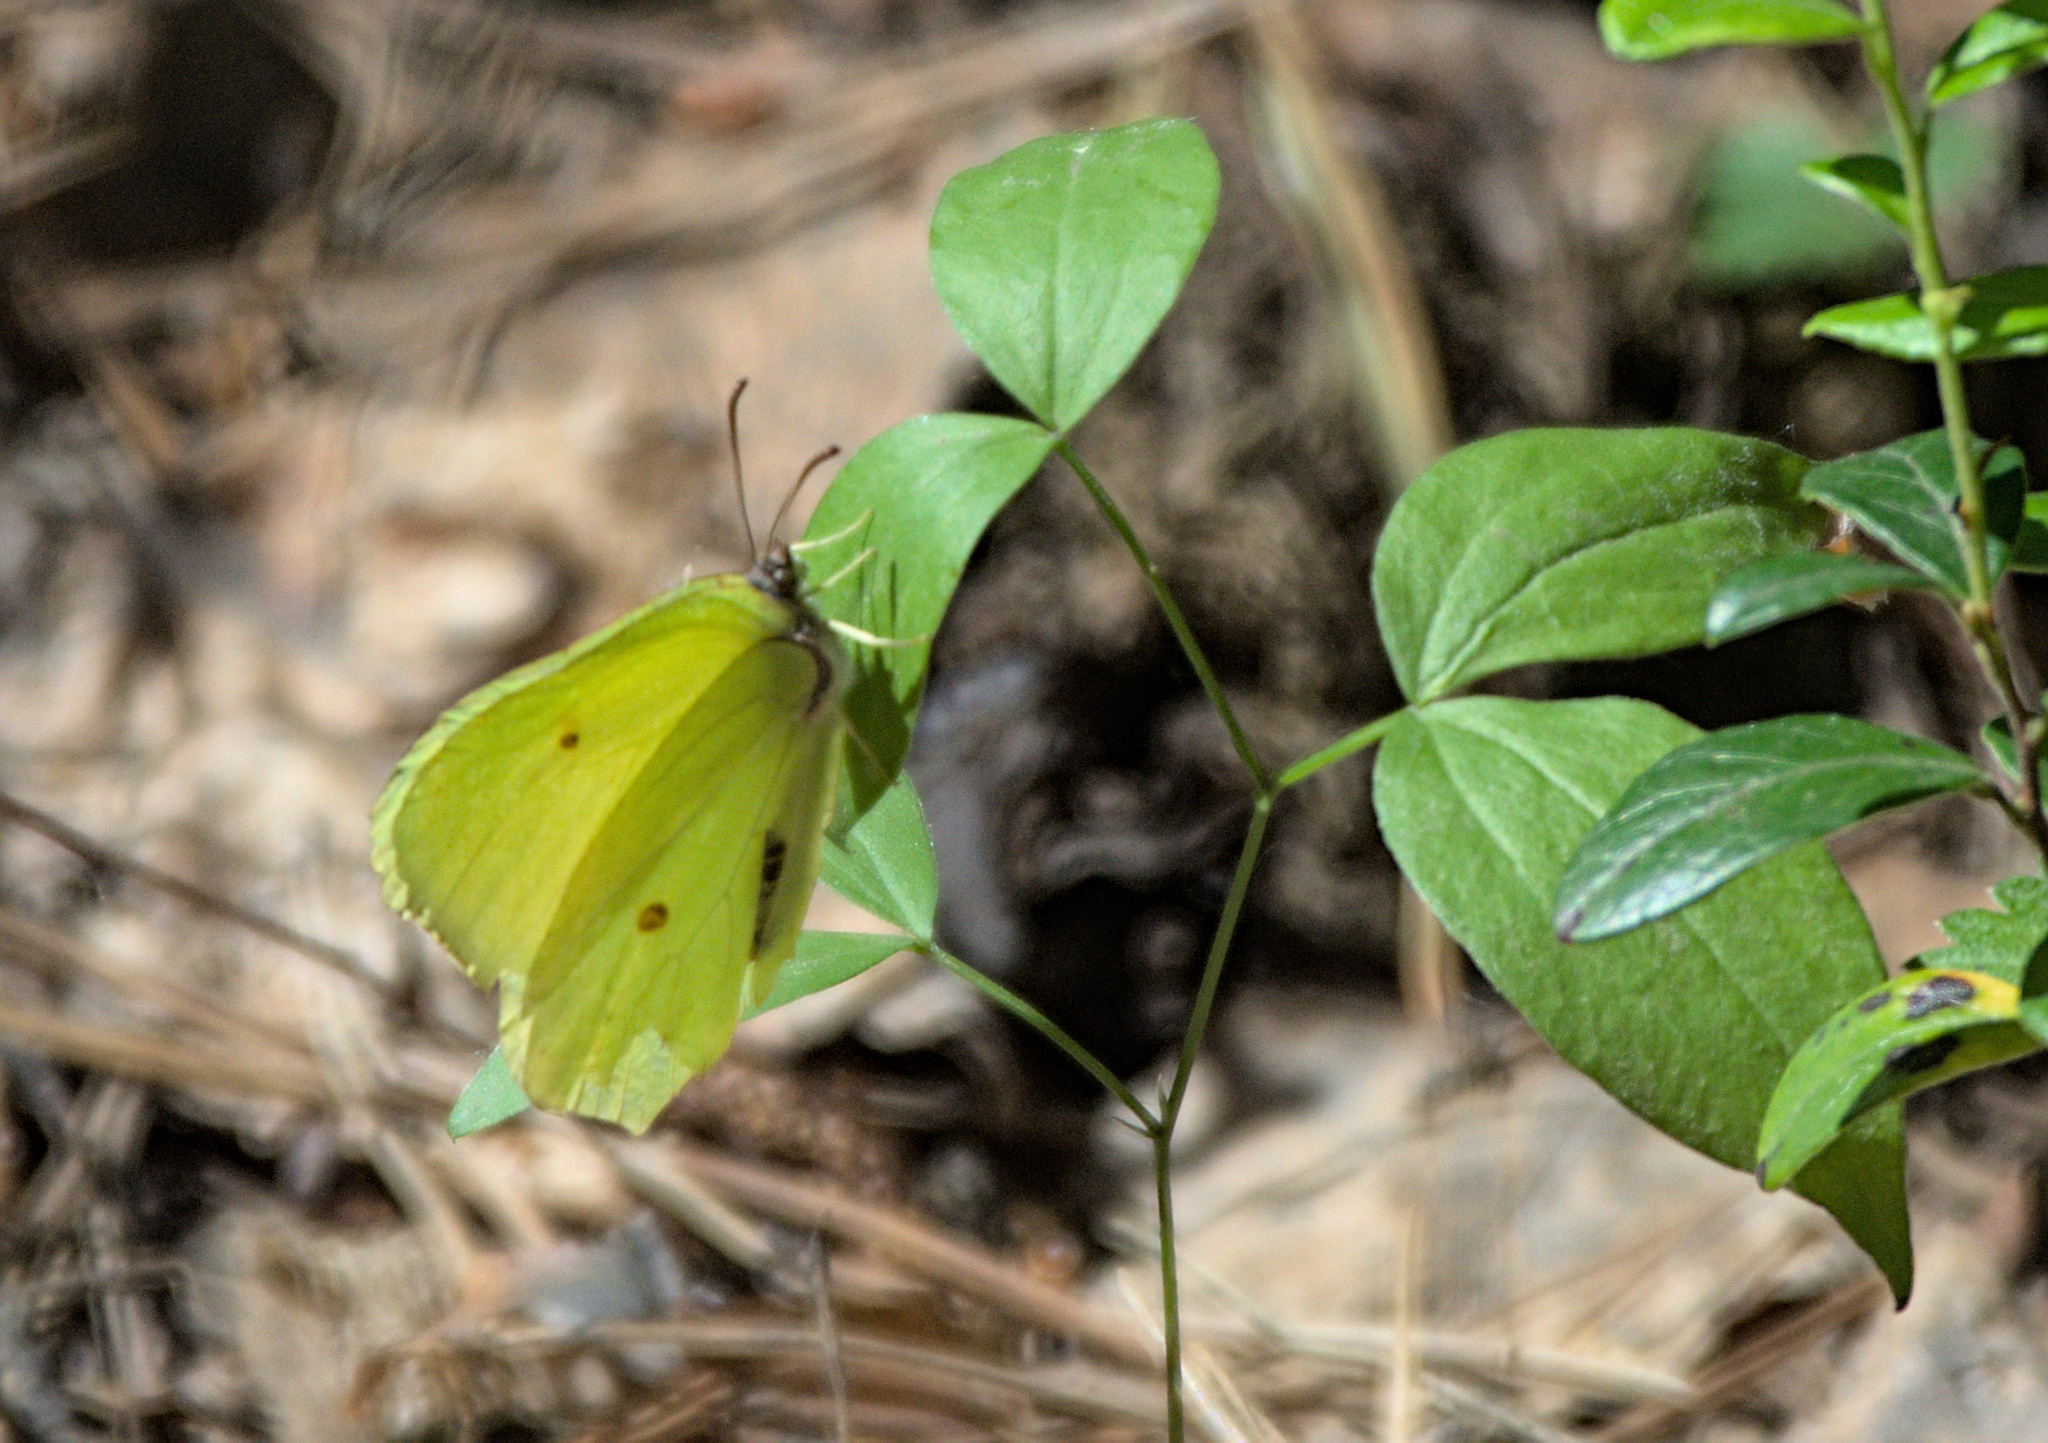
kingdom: Animalia
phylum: Arthropoda
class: Insecta
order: Lepidoptera
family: Pieridae
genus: Gonepteryx
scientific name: Gonepteryx rhamni
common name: Brimstone
